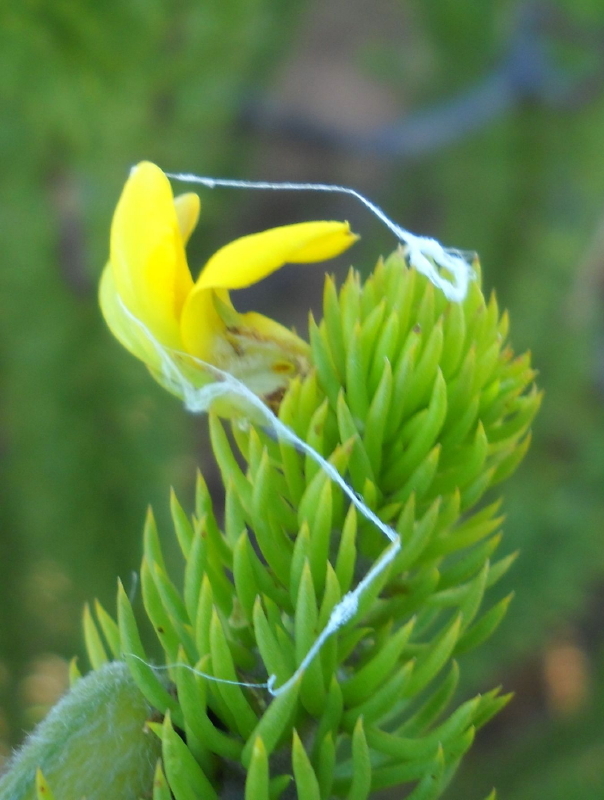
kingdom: Plantae
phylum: Tracheophyta
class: Magnoliopsida
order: Fabales
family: Fabaceae
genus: Aspalathus
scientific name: Aspalathus arenaria
